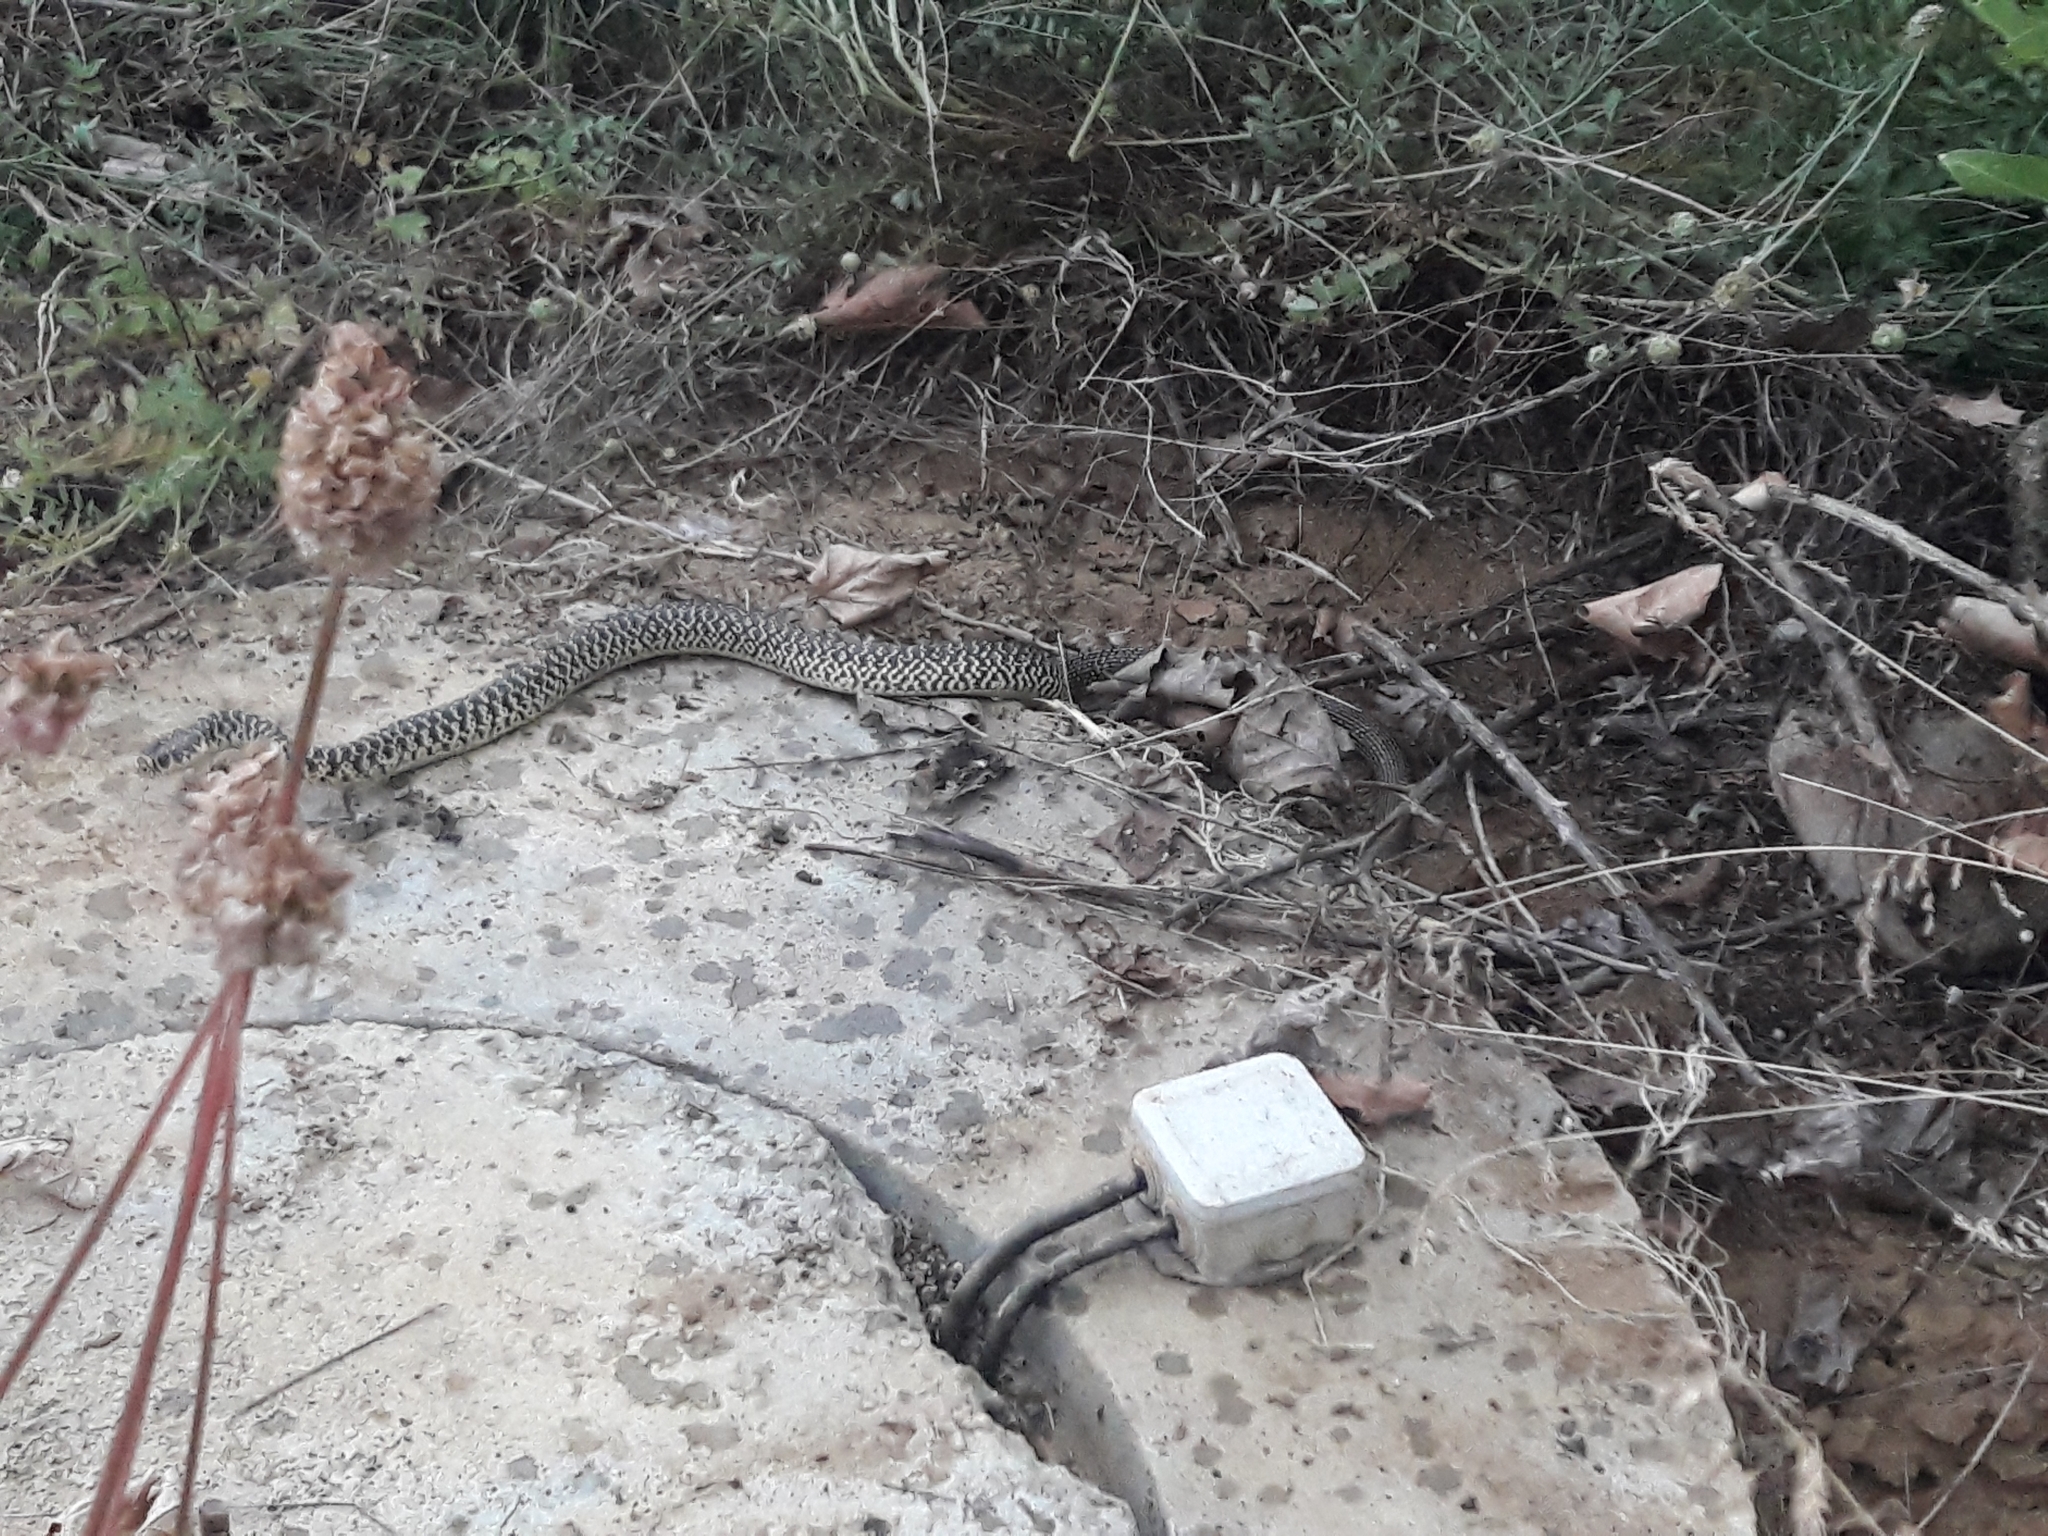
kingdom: Animalia
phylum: Chordata
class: Squamata
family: Colubridae
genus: Hierophis
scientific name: Hierophis viridiflavus
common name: Green whip snake
